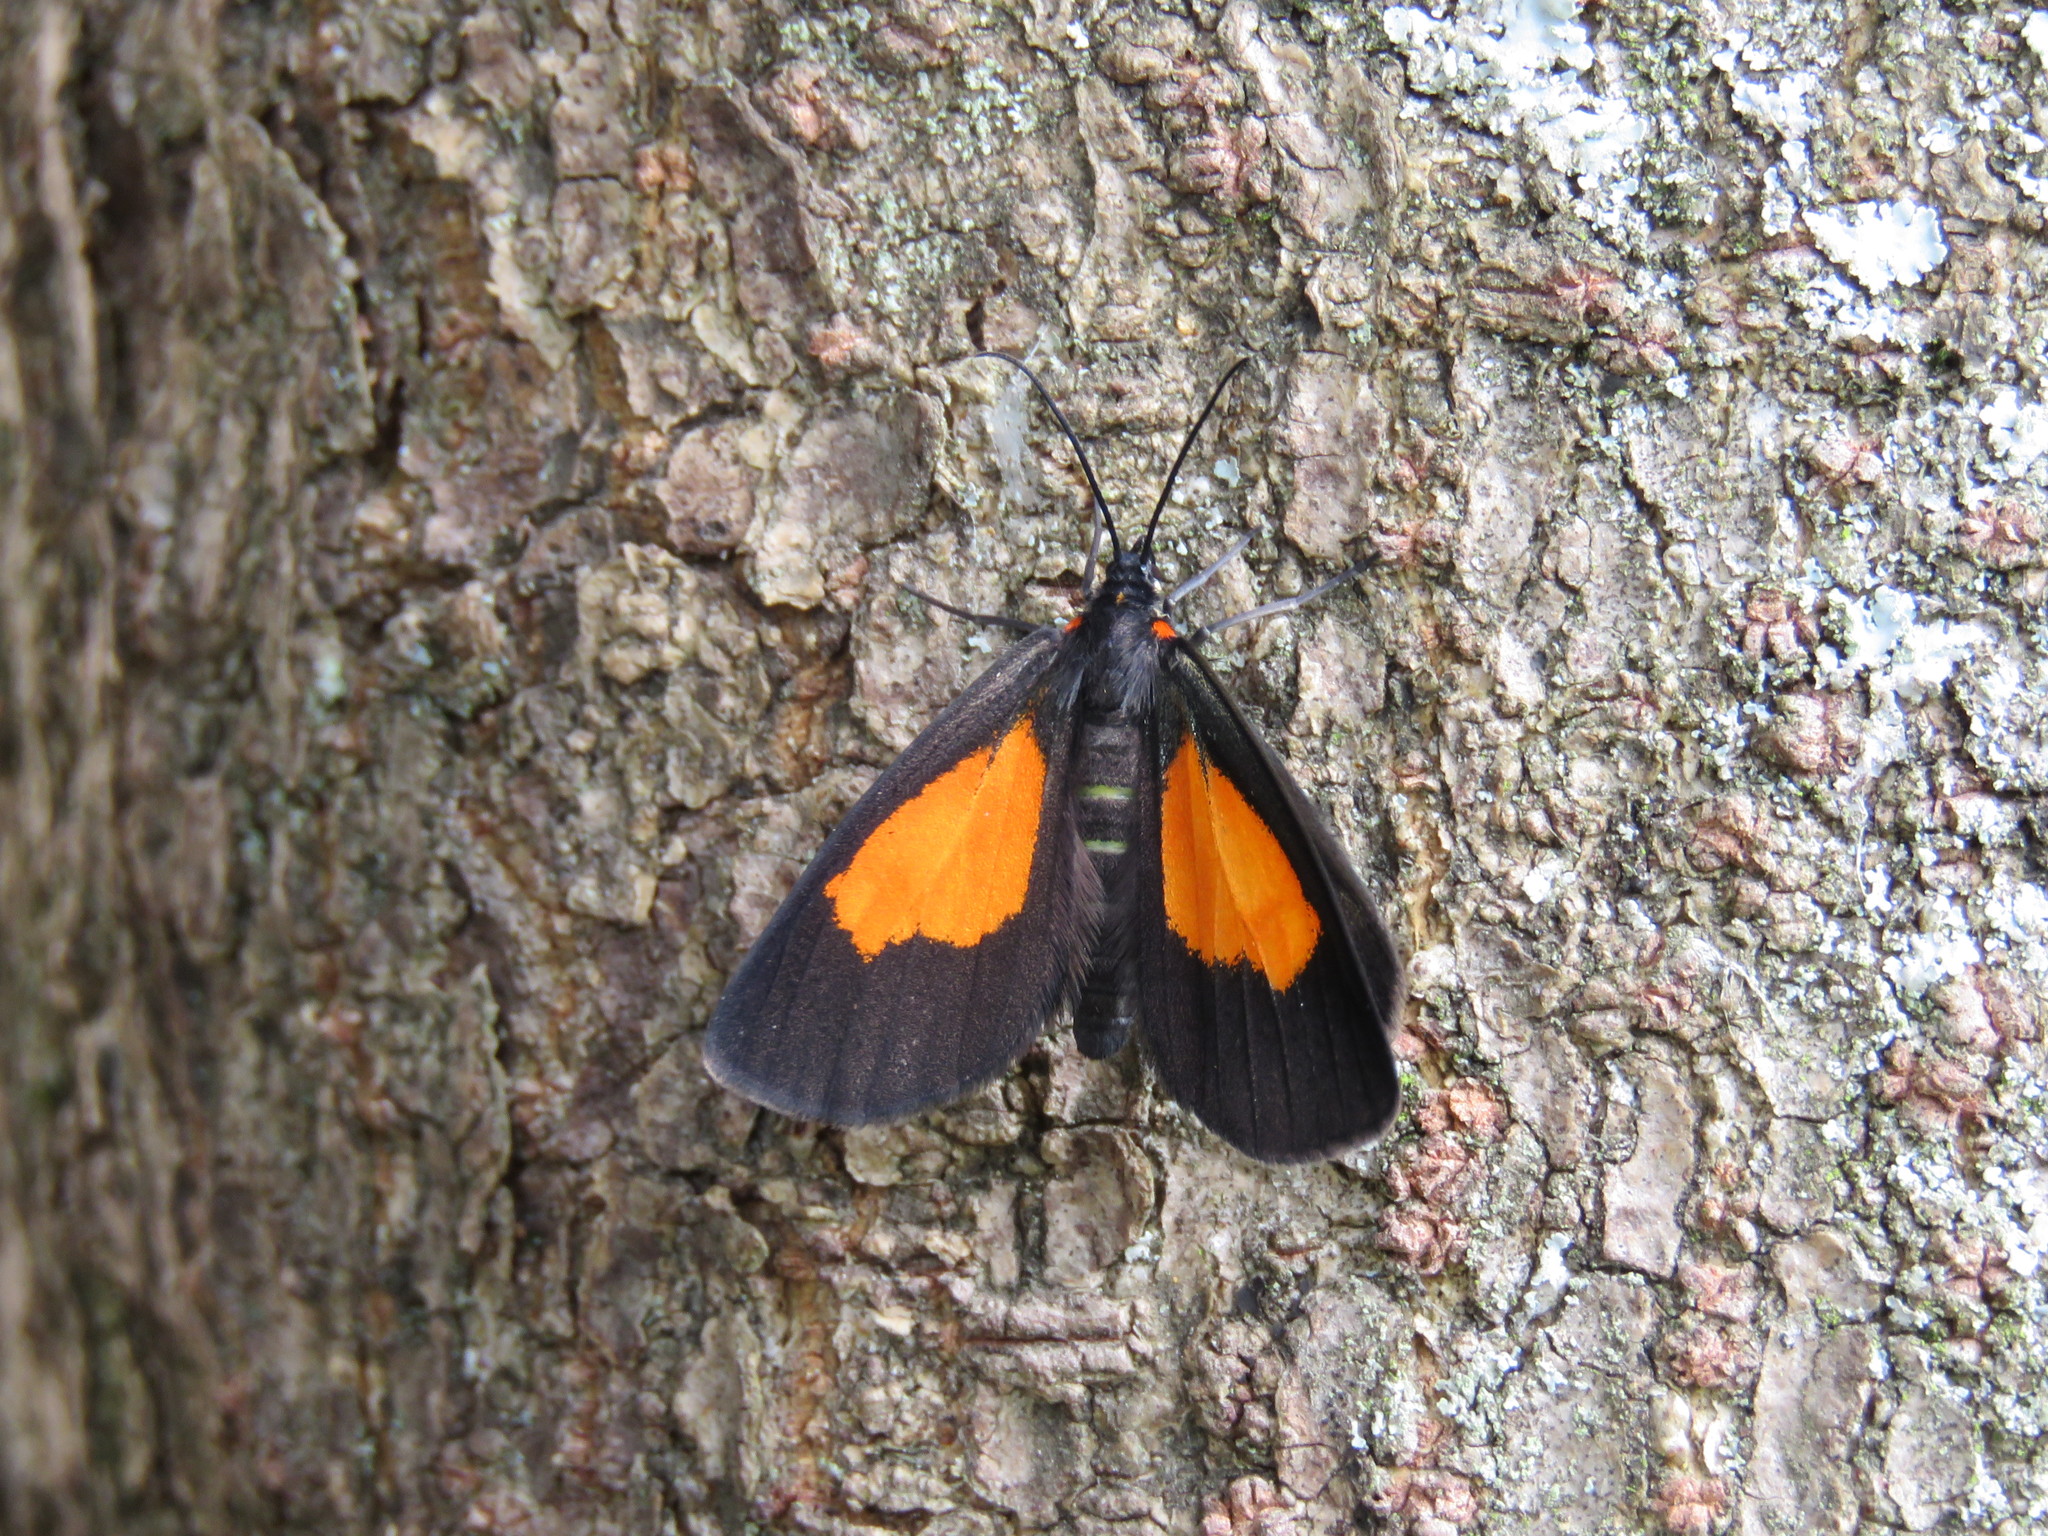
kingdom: Animalia
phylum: Arthropoda
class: Insecta
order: Lepidoptera
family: Geometridae
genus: Drymoea
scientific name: Drymoea
